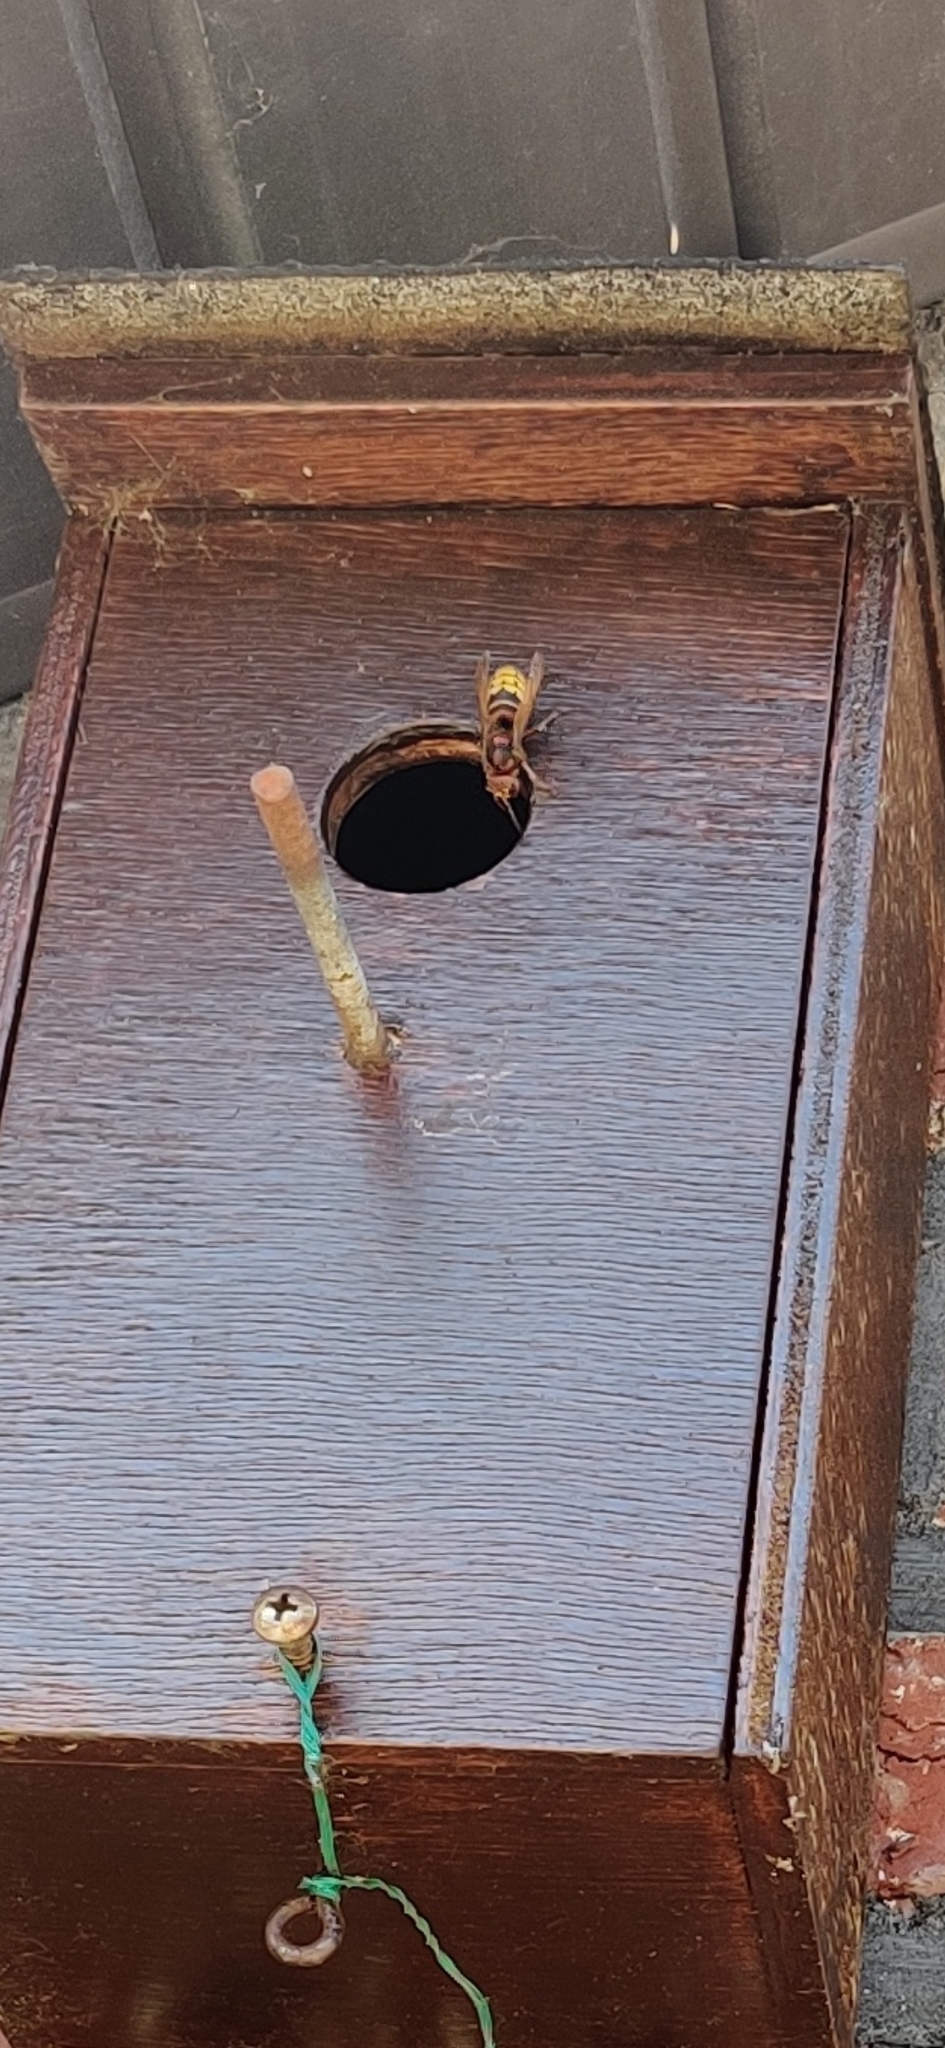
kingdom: Animalia
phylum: Arthropoda
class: Insecta
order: Hymenoptera
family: Vespidae
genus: Vespa
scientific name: Vespa crabro
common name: Hornet
